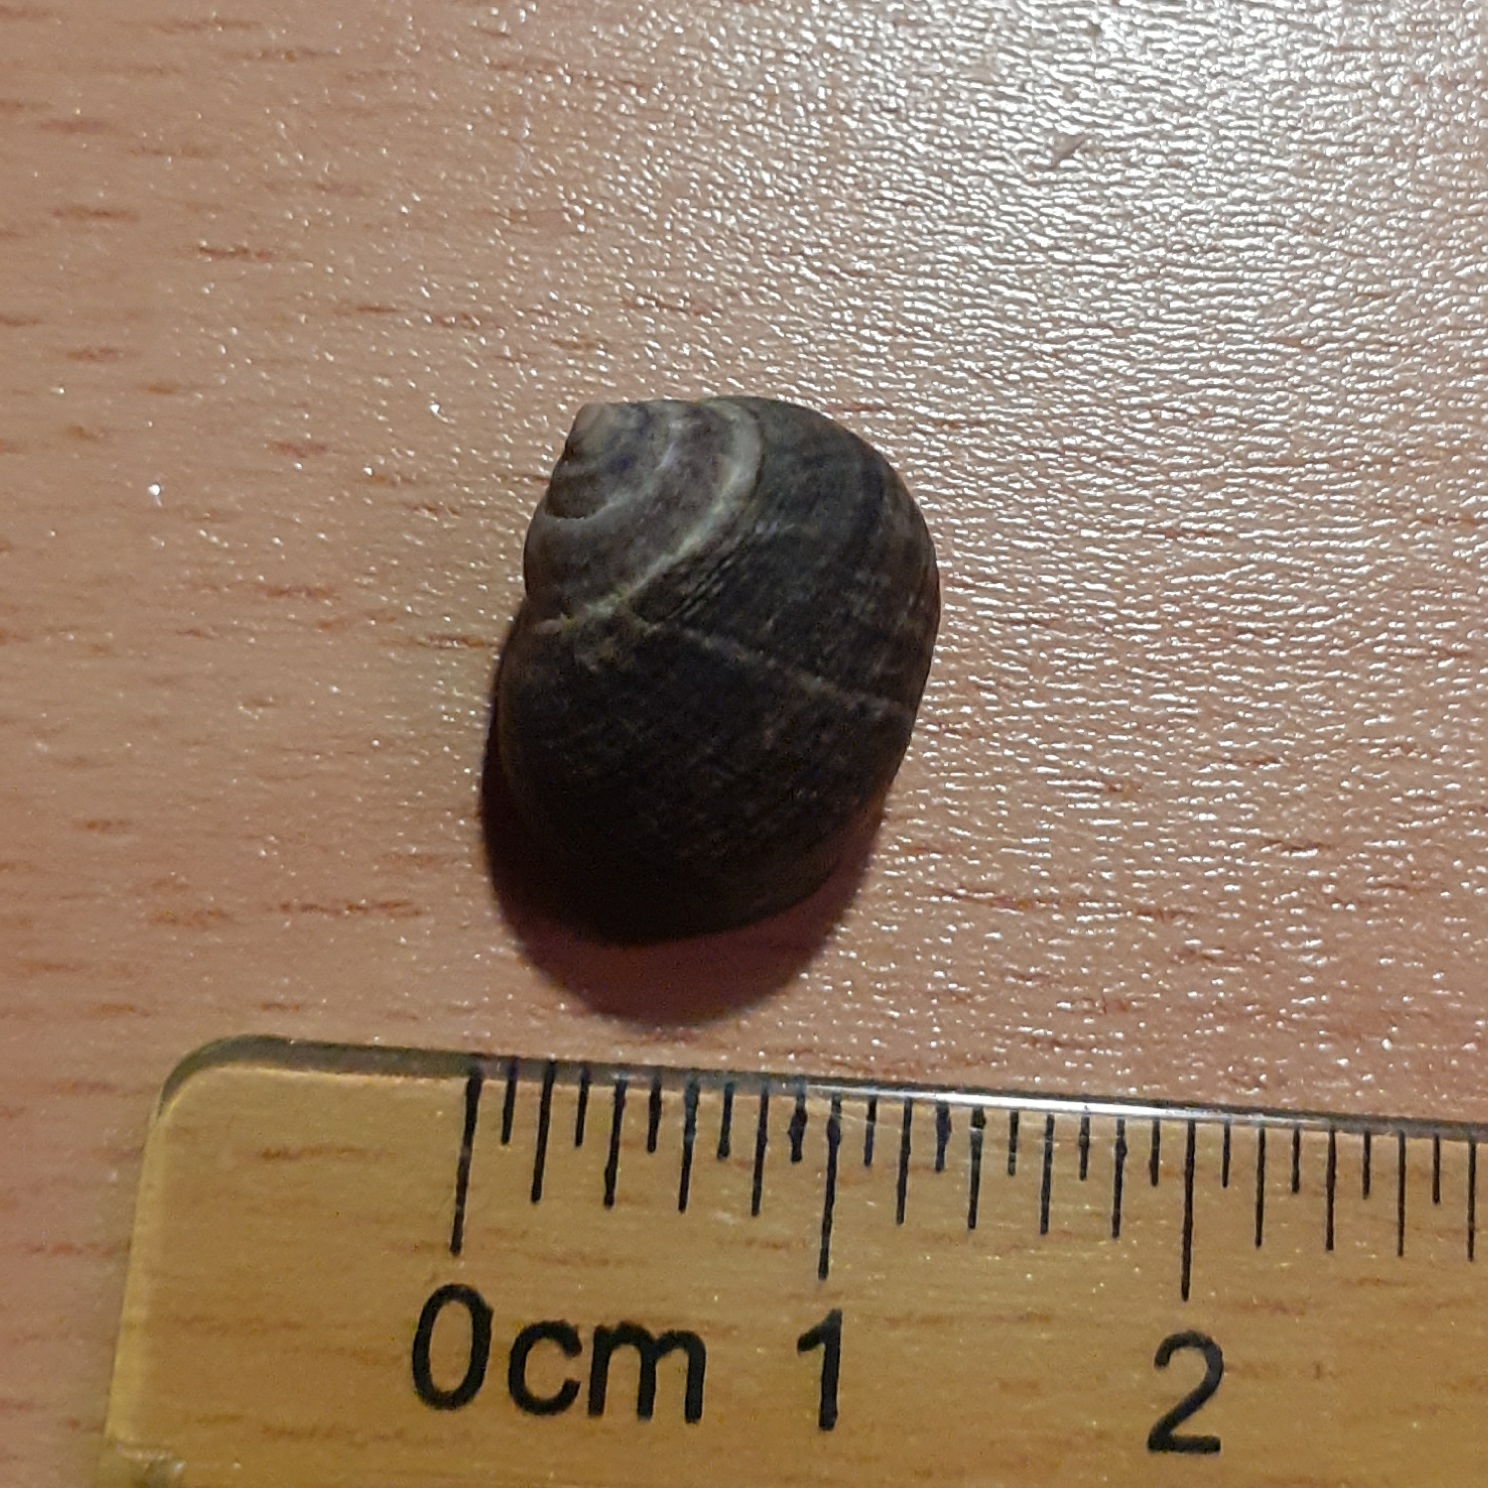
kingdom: Animalia
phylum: Mollusca
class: Gastropoda
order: Littorinimorpha
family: Littorinidae
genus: Littorina
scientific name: Littorina littorea
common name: Common periwinkle
